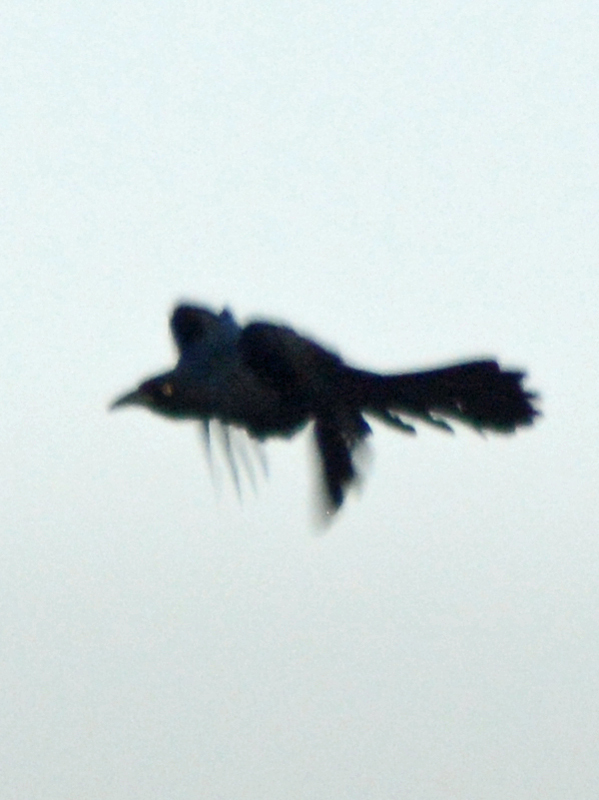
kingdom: Animalia
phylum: Chordata
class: Aves
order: Passeriformes
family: Icteridae
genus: Quiscalus
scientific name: Quiscalus mexicanus
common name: Great-tailed grackle
